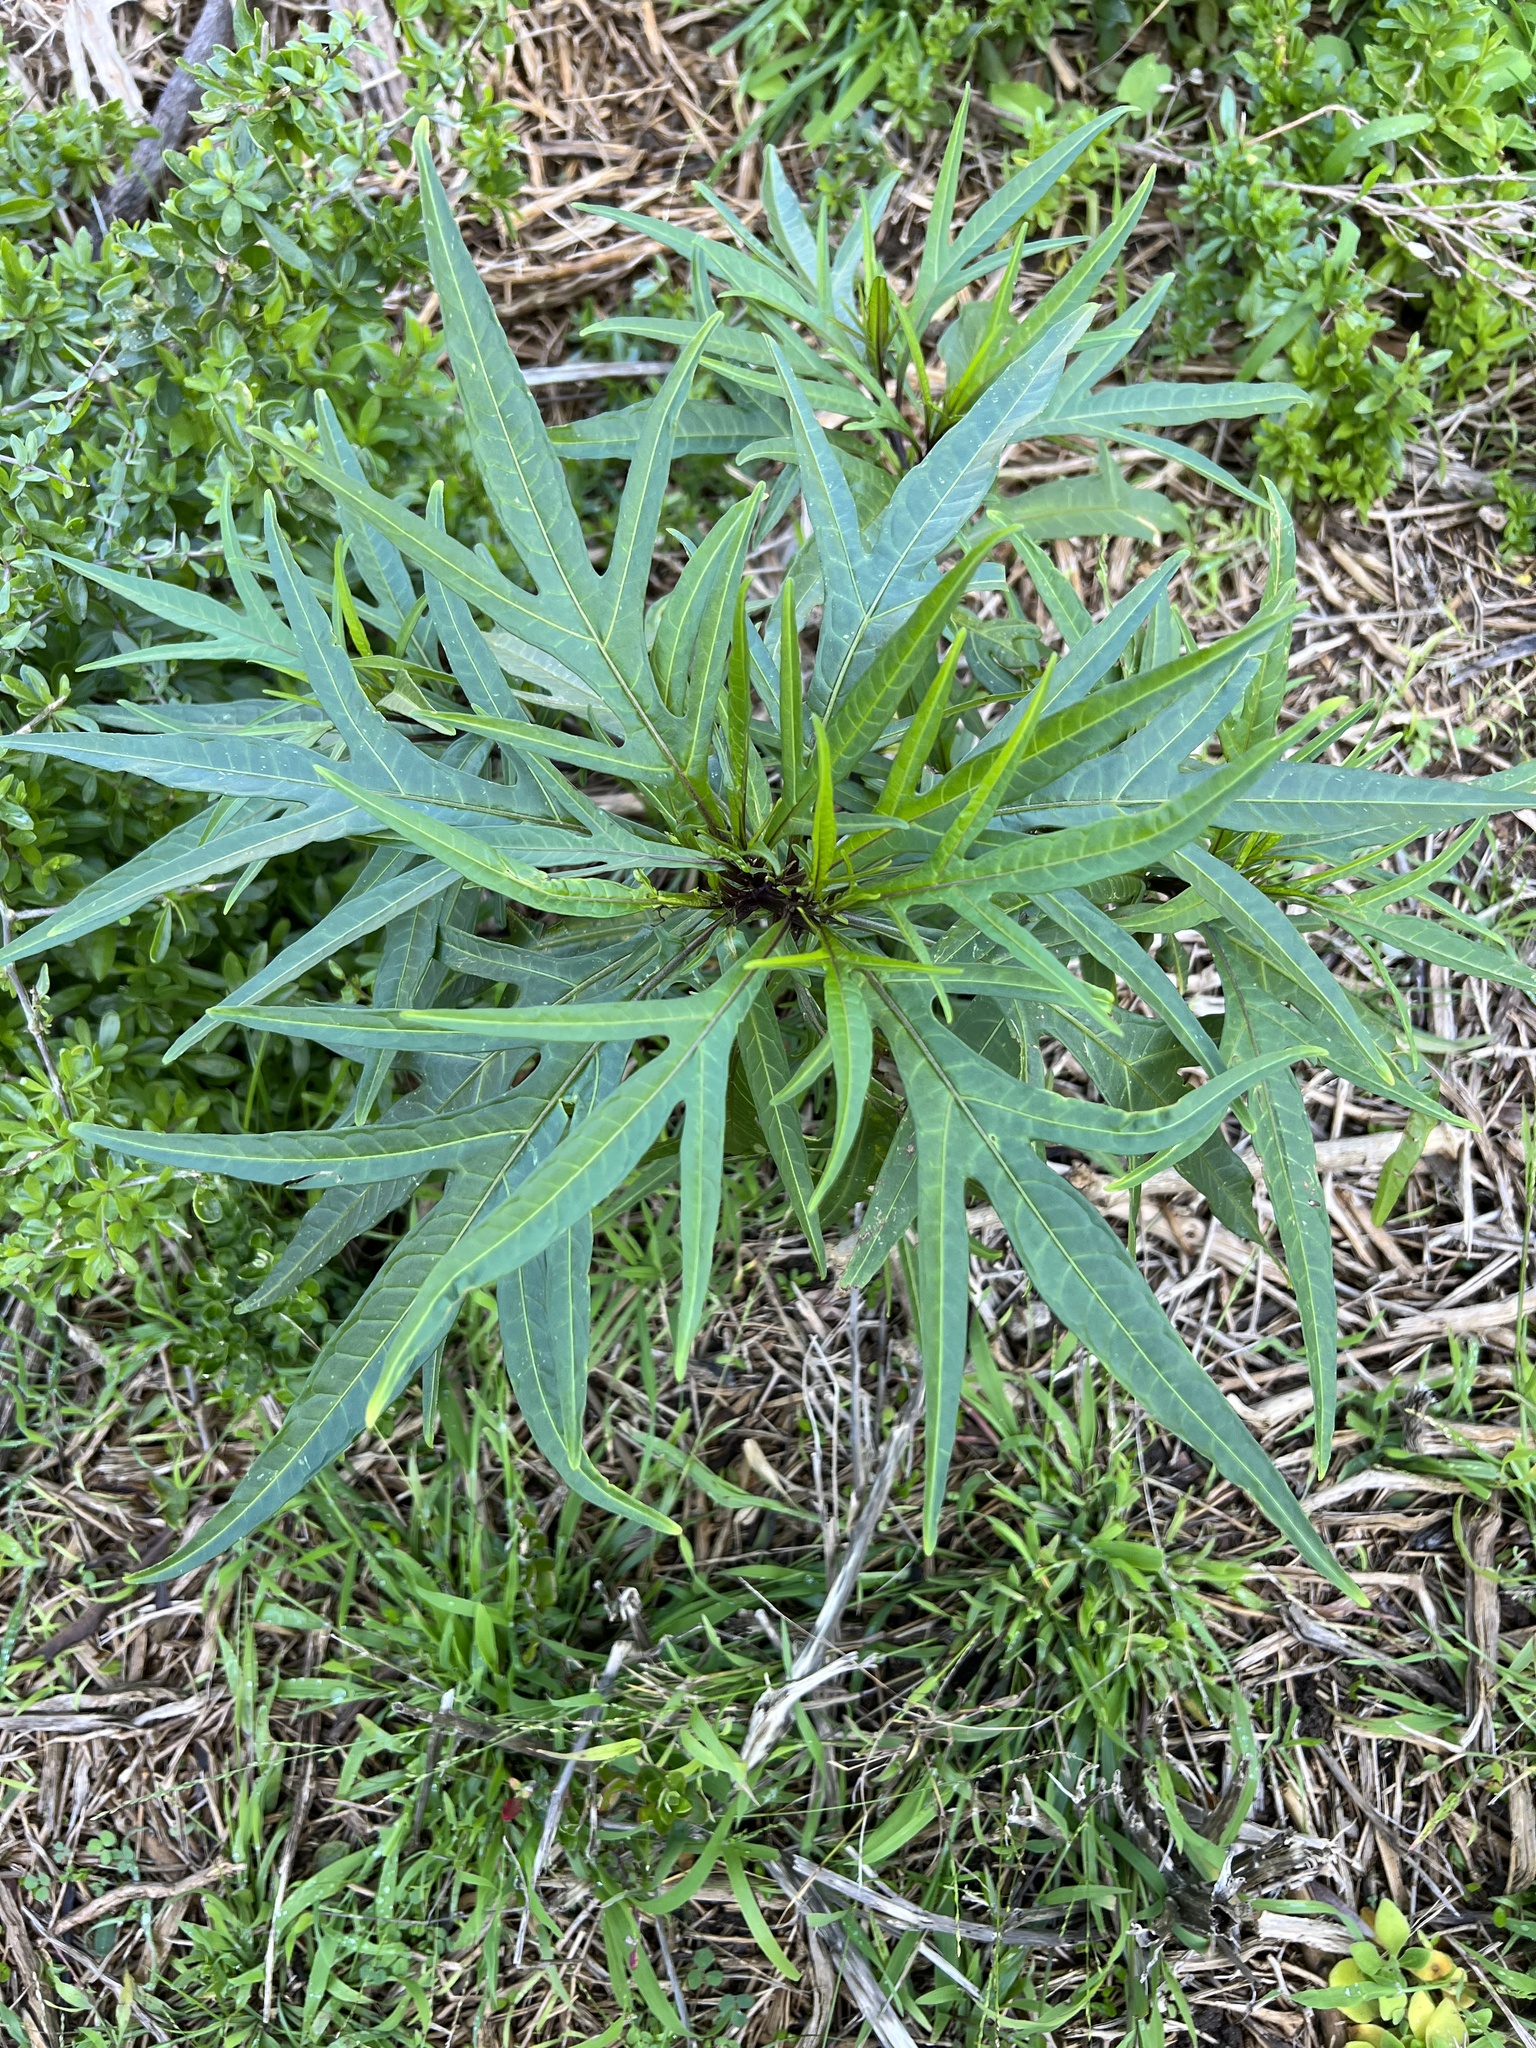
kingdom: Plantae
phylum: Tracheophyta
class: Magnoliopsida
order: Solanales
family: Solanaceae
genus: Solanum
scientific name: Solanum laciniatum
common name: Kangaroo-apple
